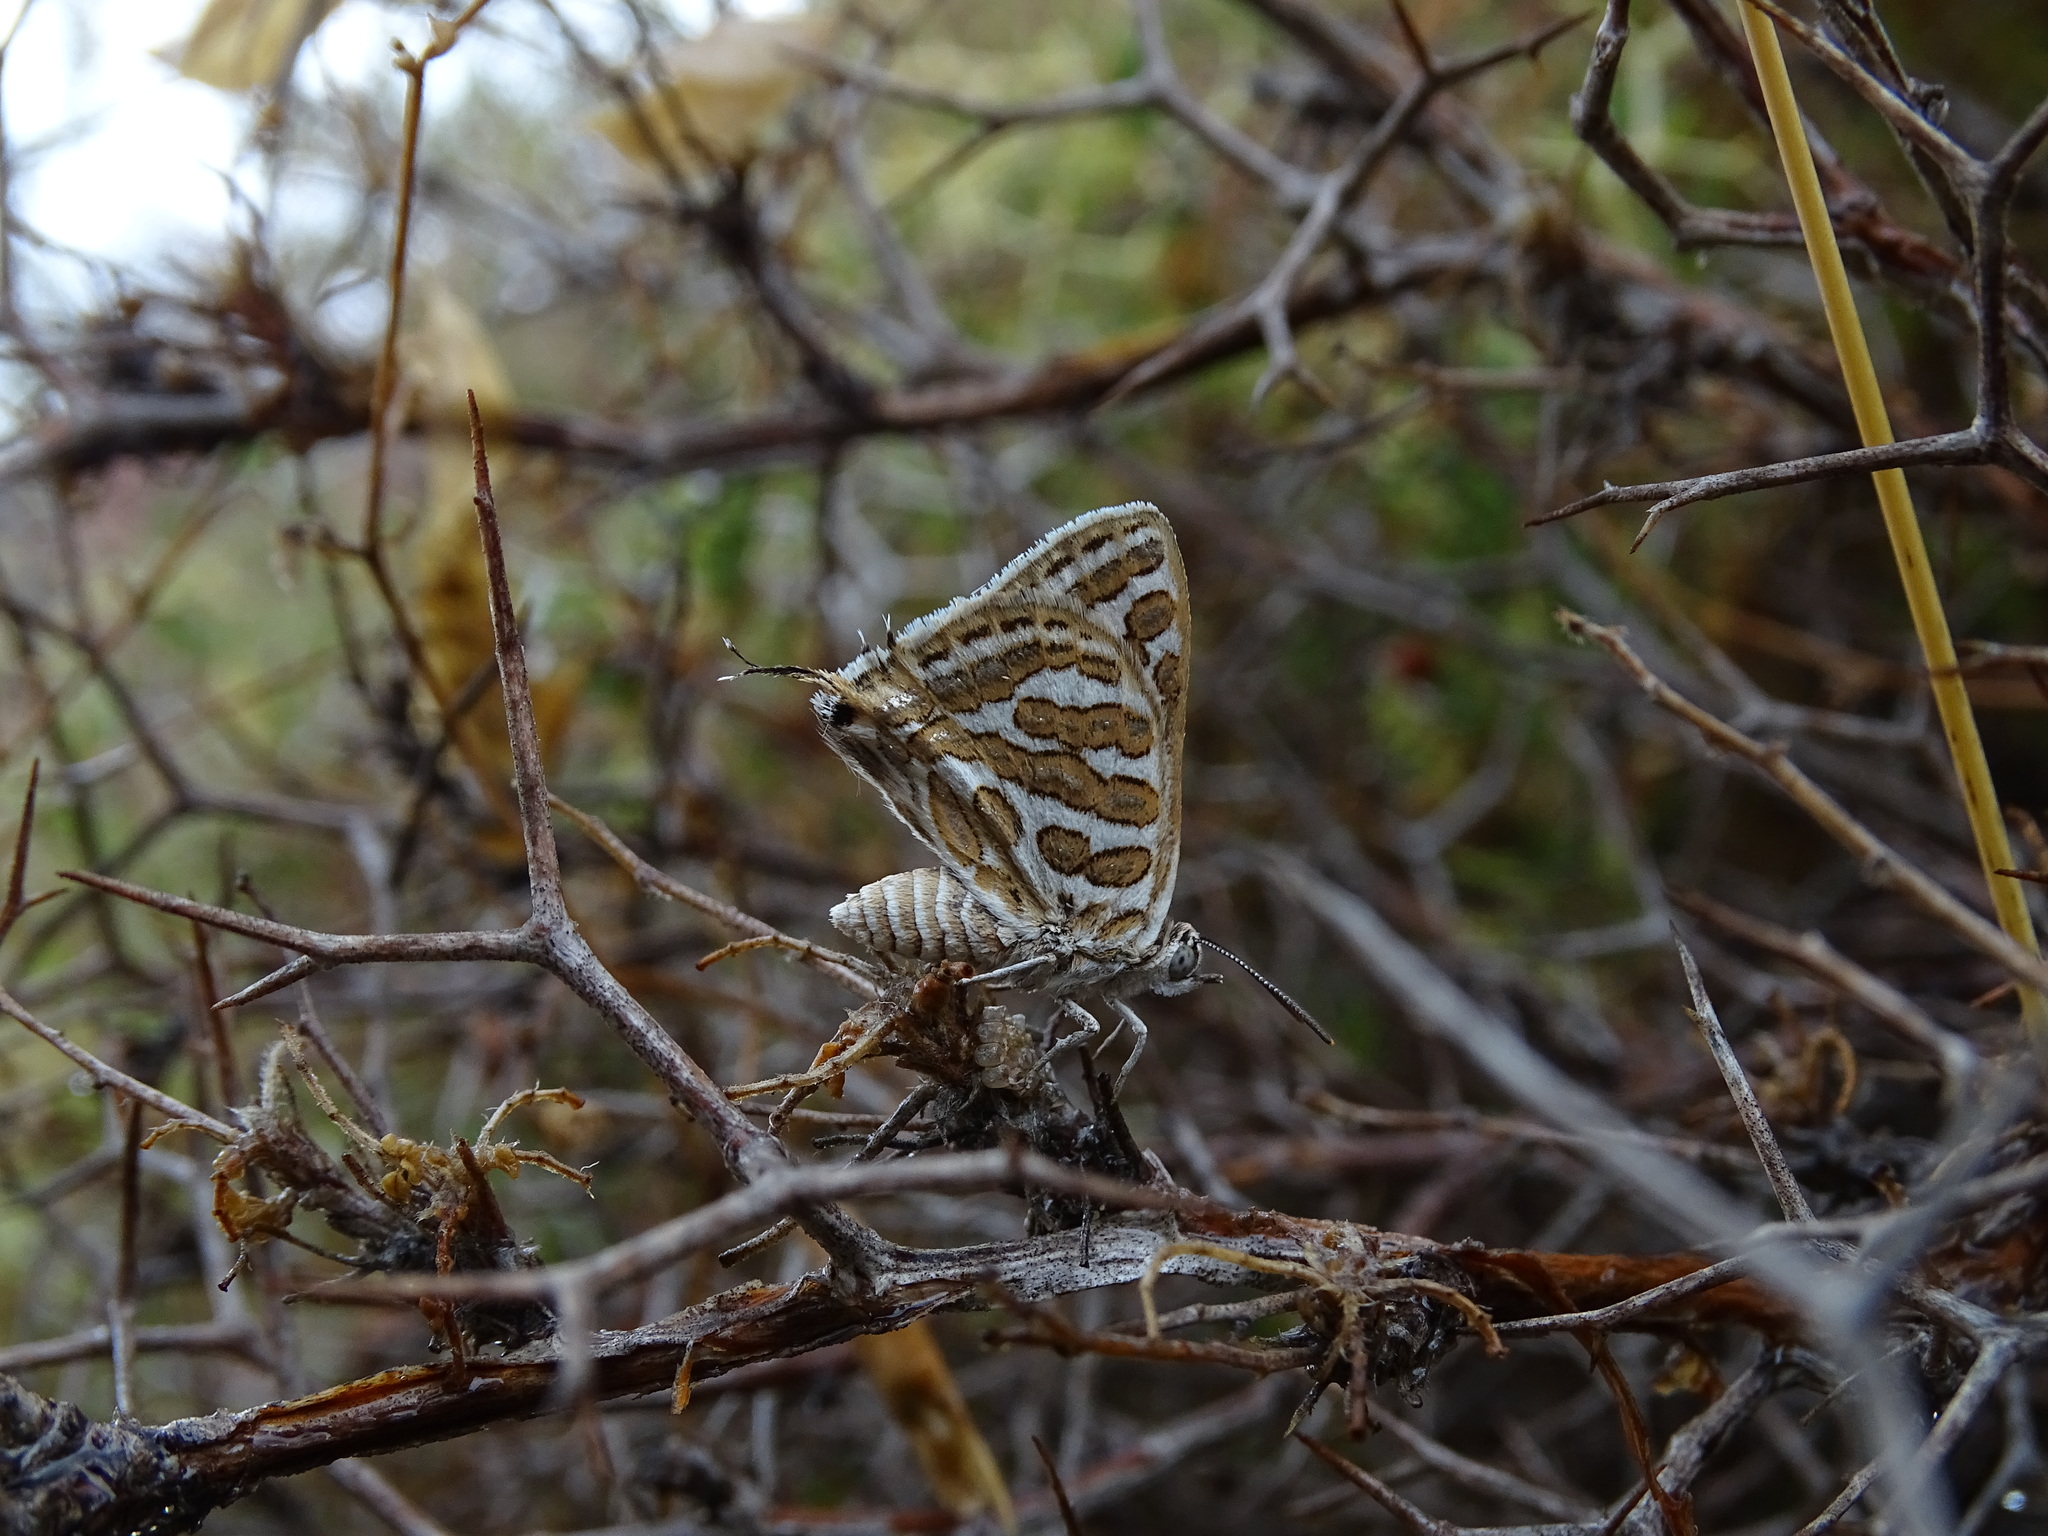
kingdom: Animalia
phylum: Arthropoda
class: Insecta
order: Lepidoptera
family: Lycaenidae
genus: Cigaritis
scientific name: Cigaritis acamas
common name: Levantine leopard
